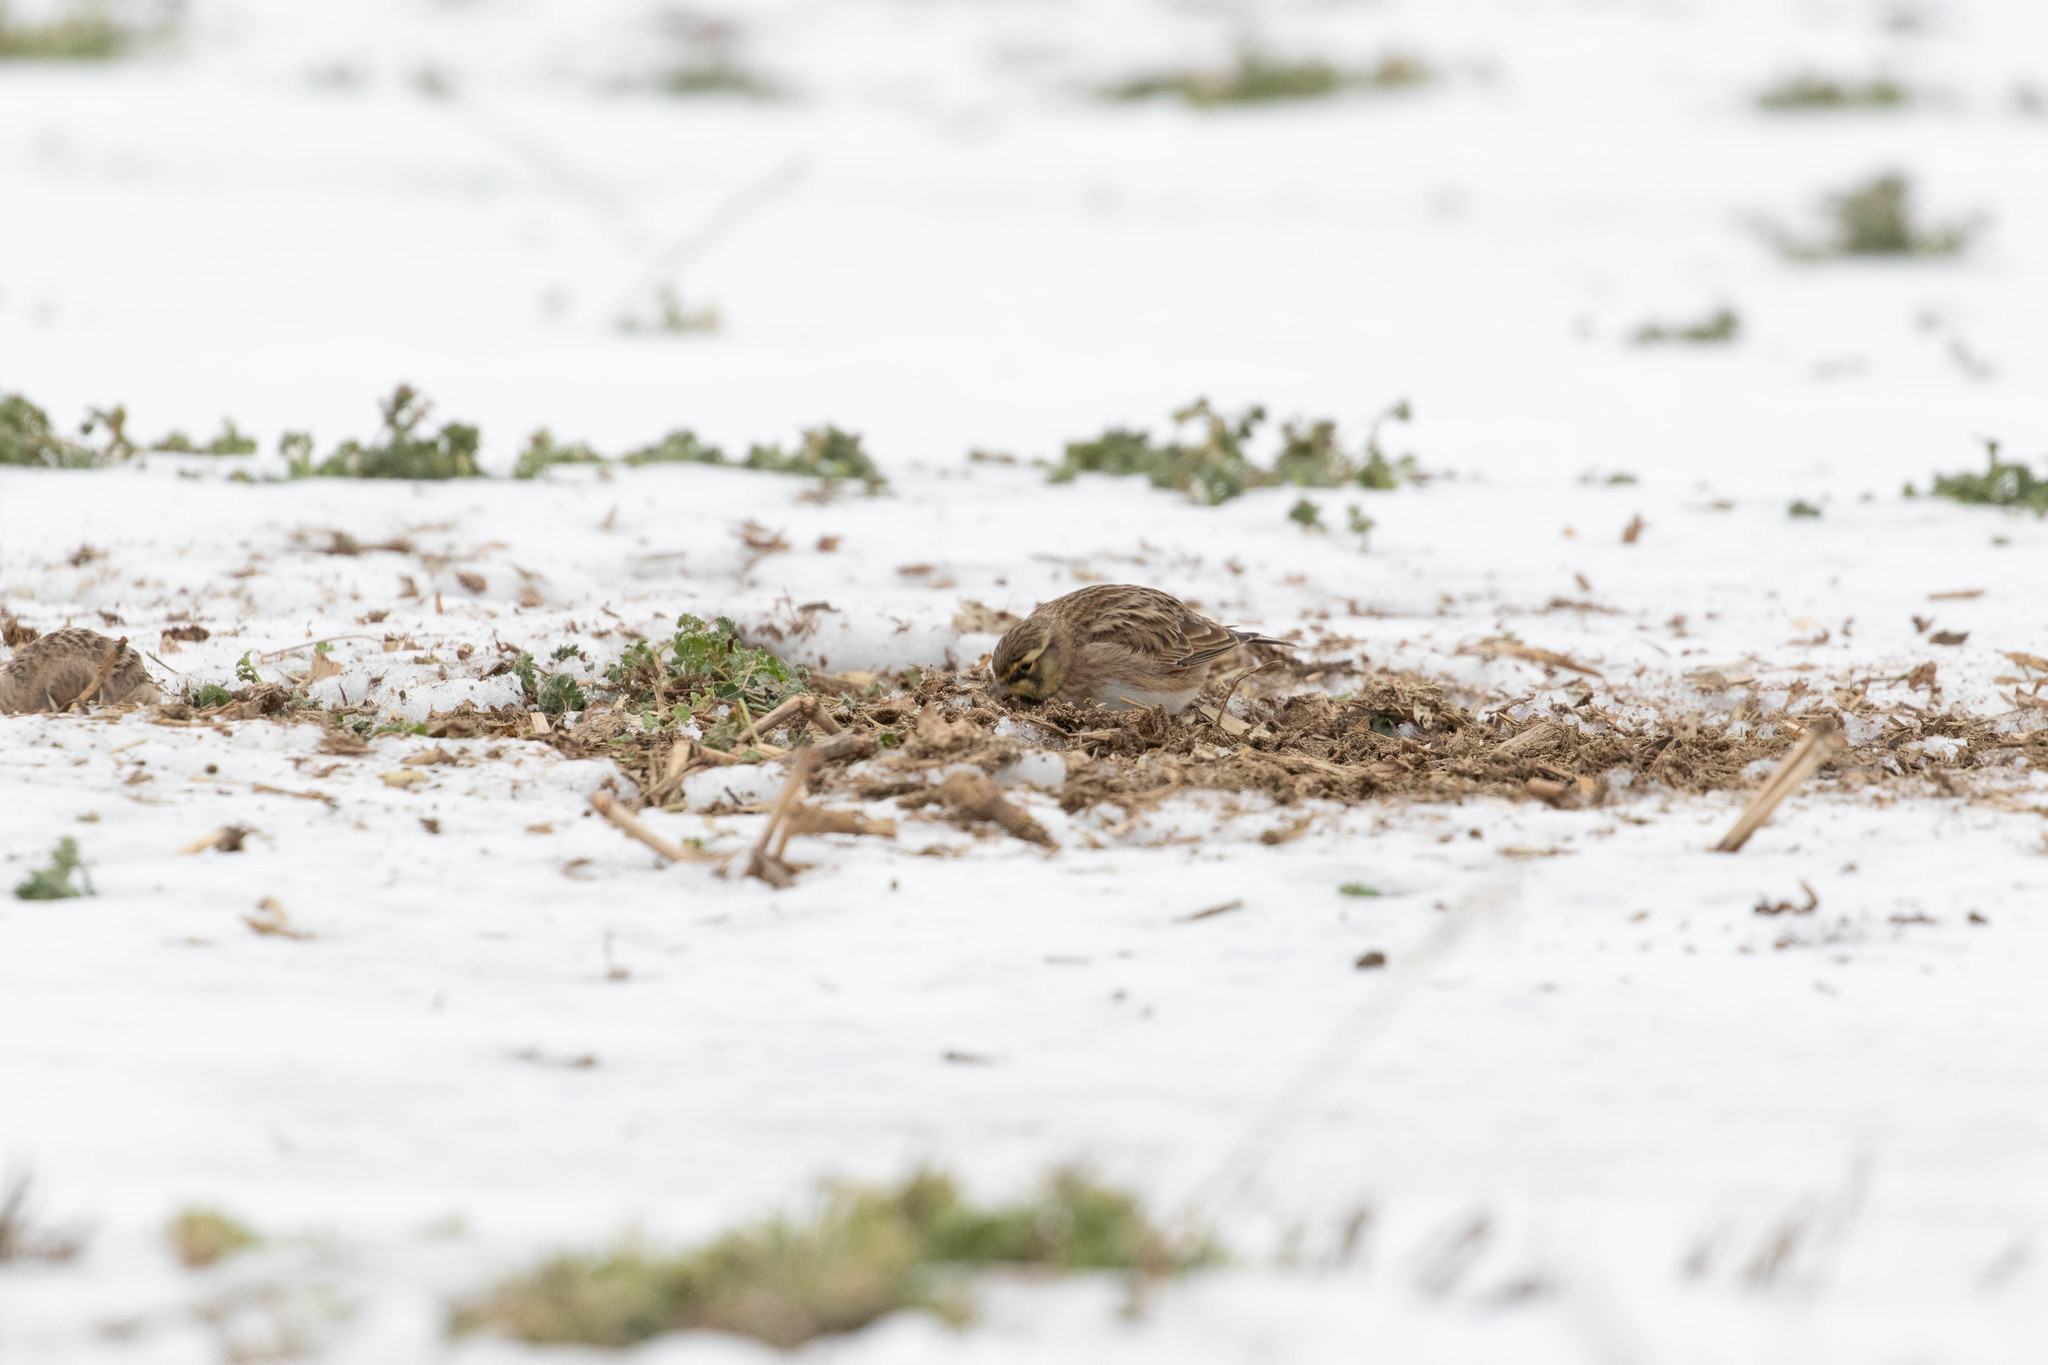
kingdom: Animalia
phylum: Chordata
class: Aves
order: Passeriformes
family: Alaudidae
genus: Eremophila
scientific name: Eremophila alpestris
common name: Horned lark
